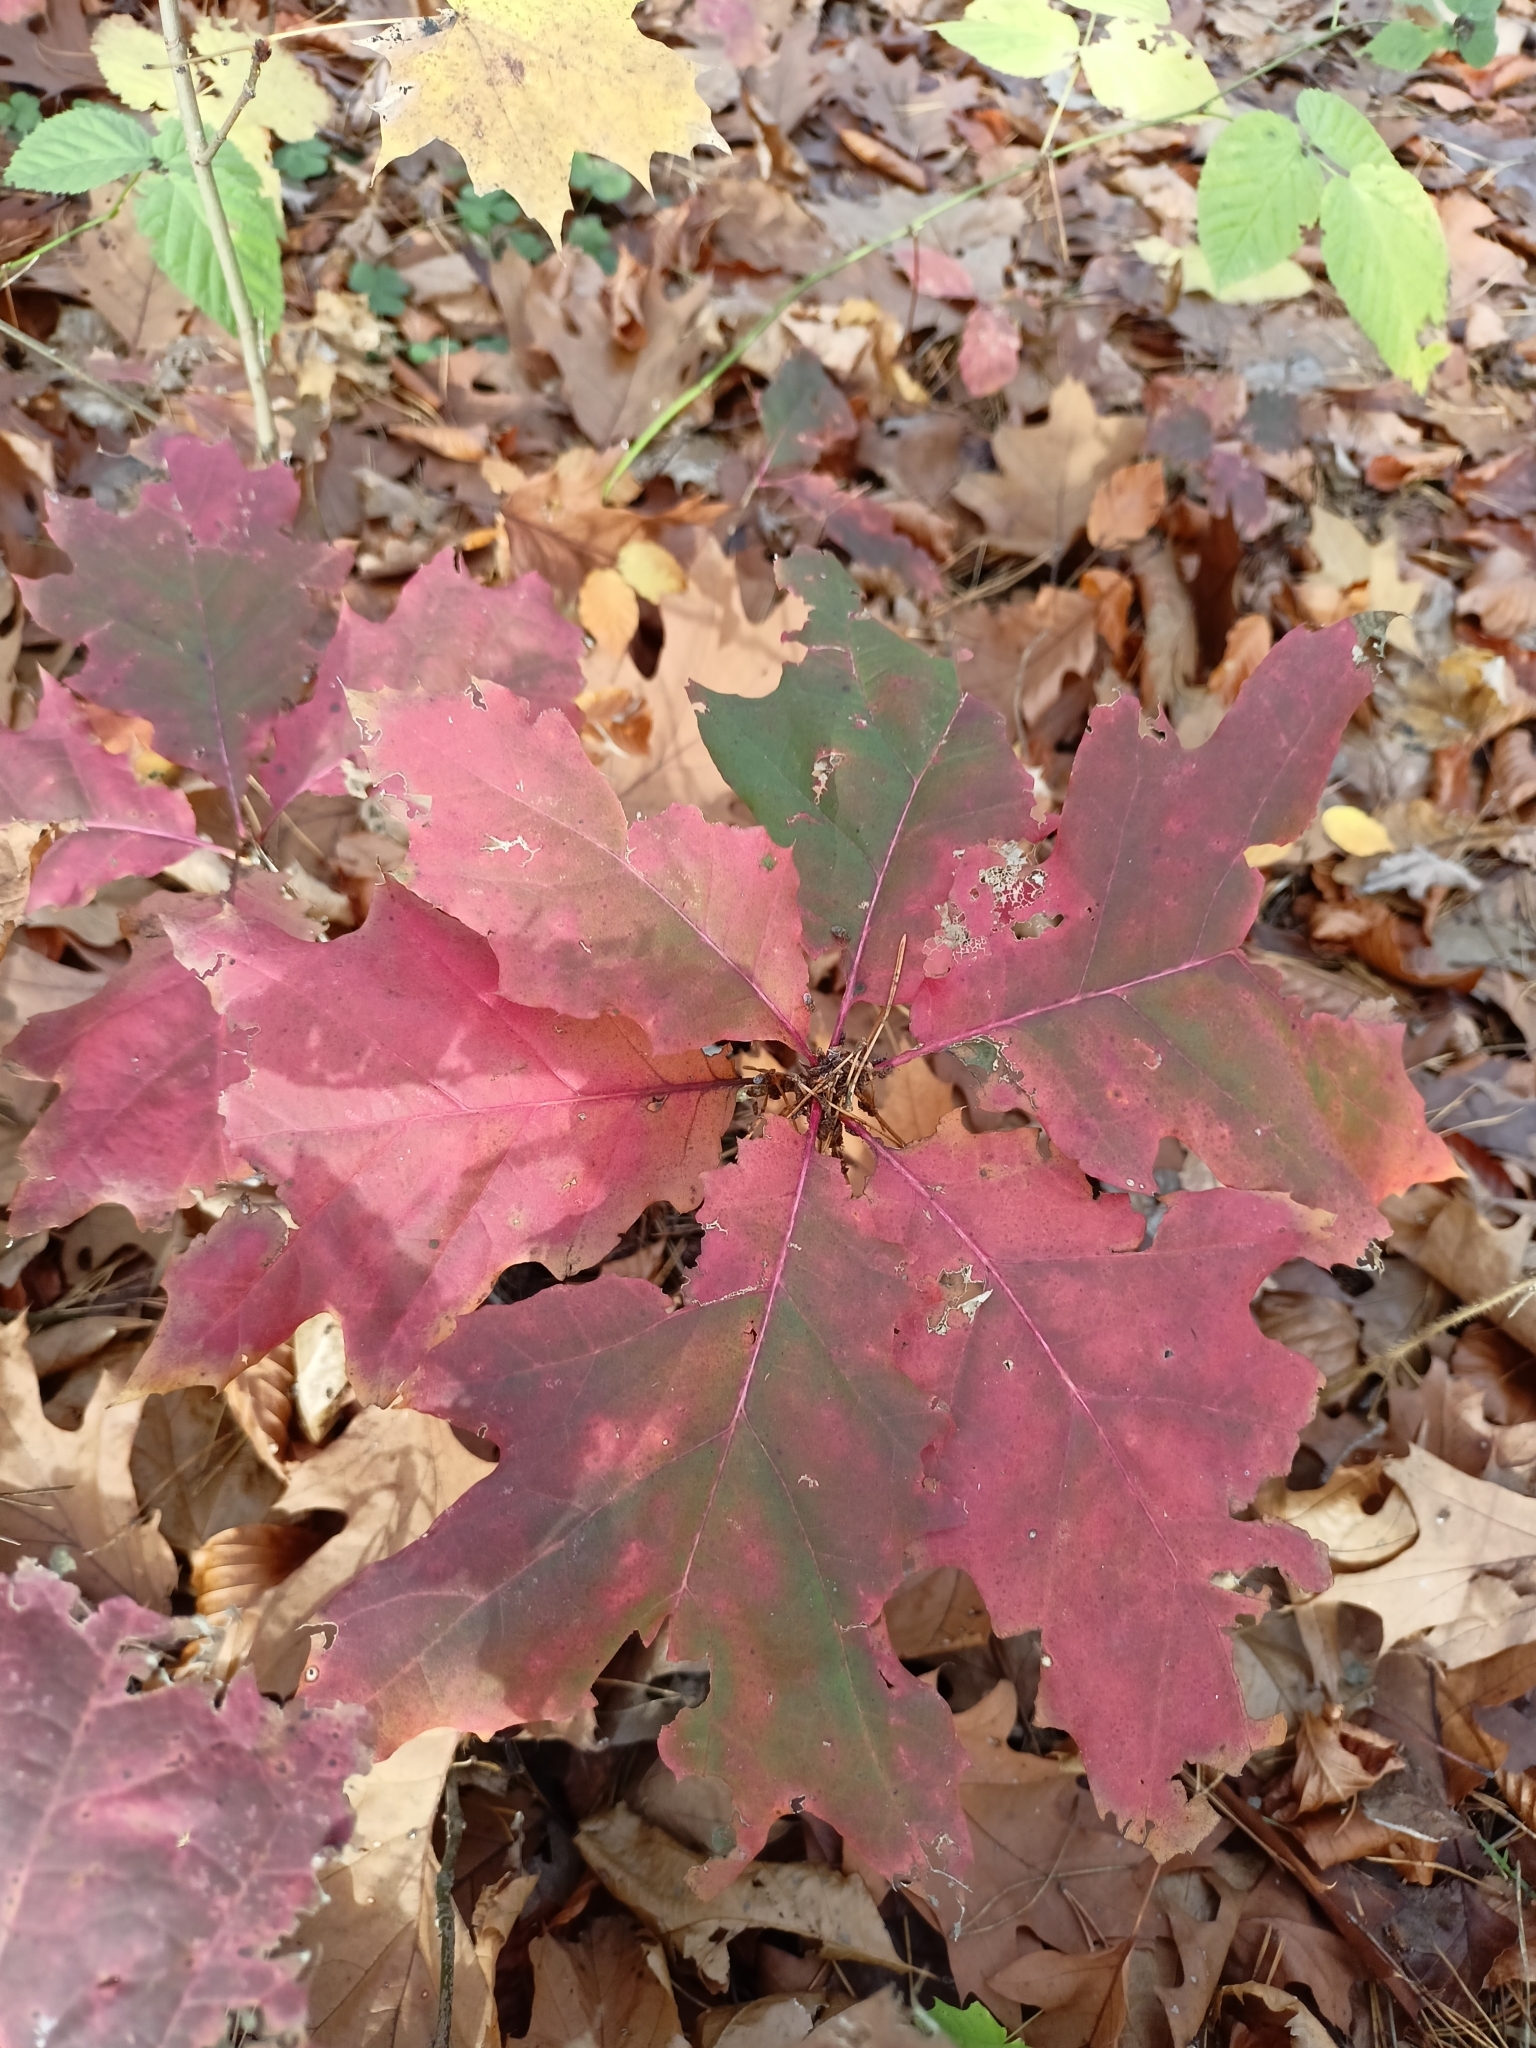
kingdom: Plantae
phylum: Tracheophyta
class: Magnoliopsida
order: Fagales
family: Fagaceae
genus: Quercus
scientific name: Quercus rubra
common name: Red oak
